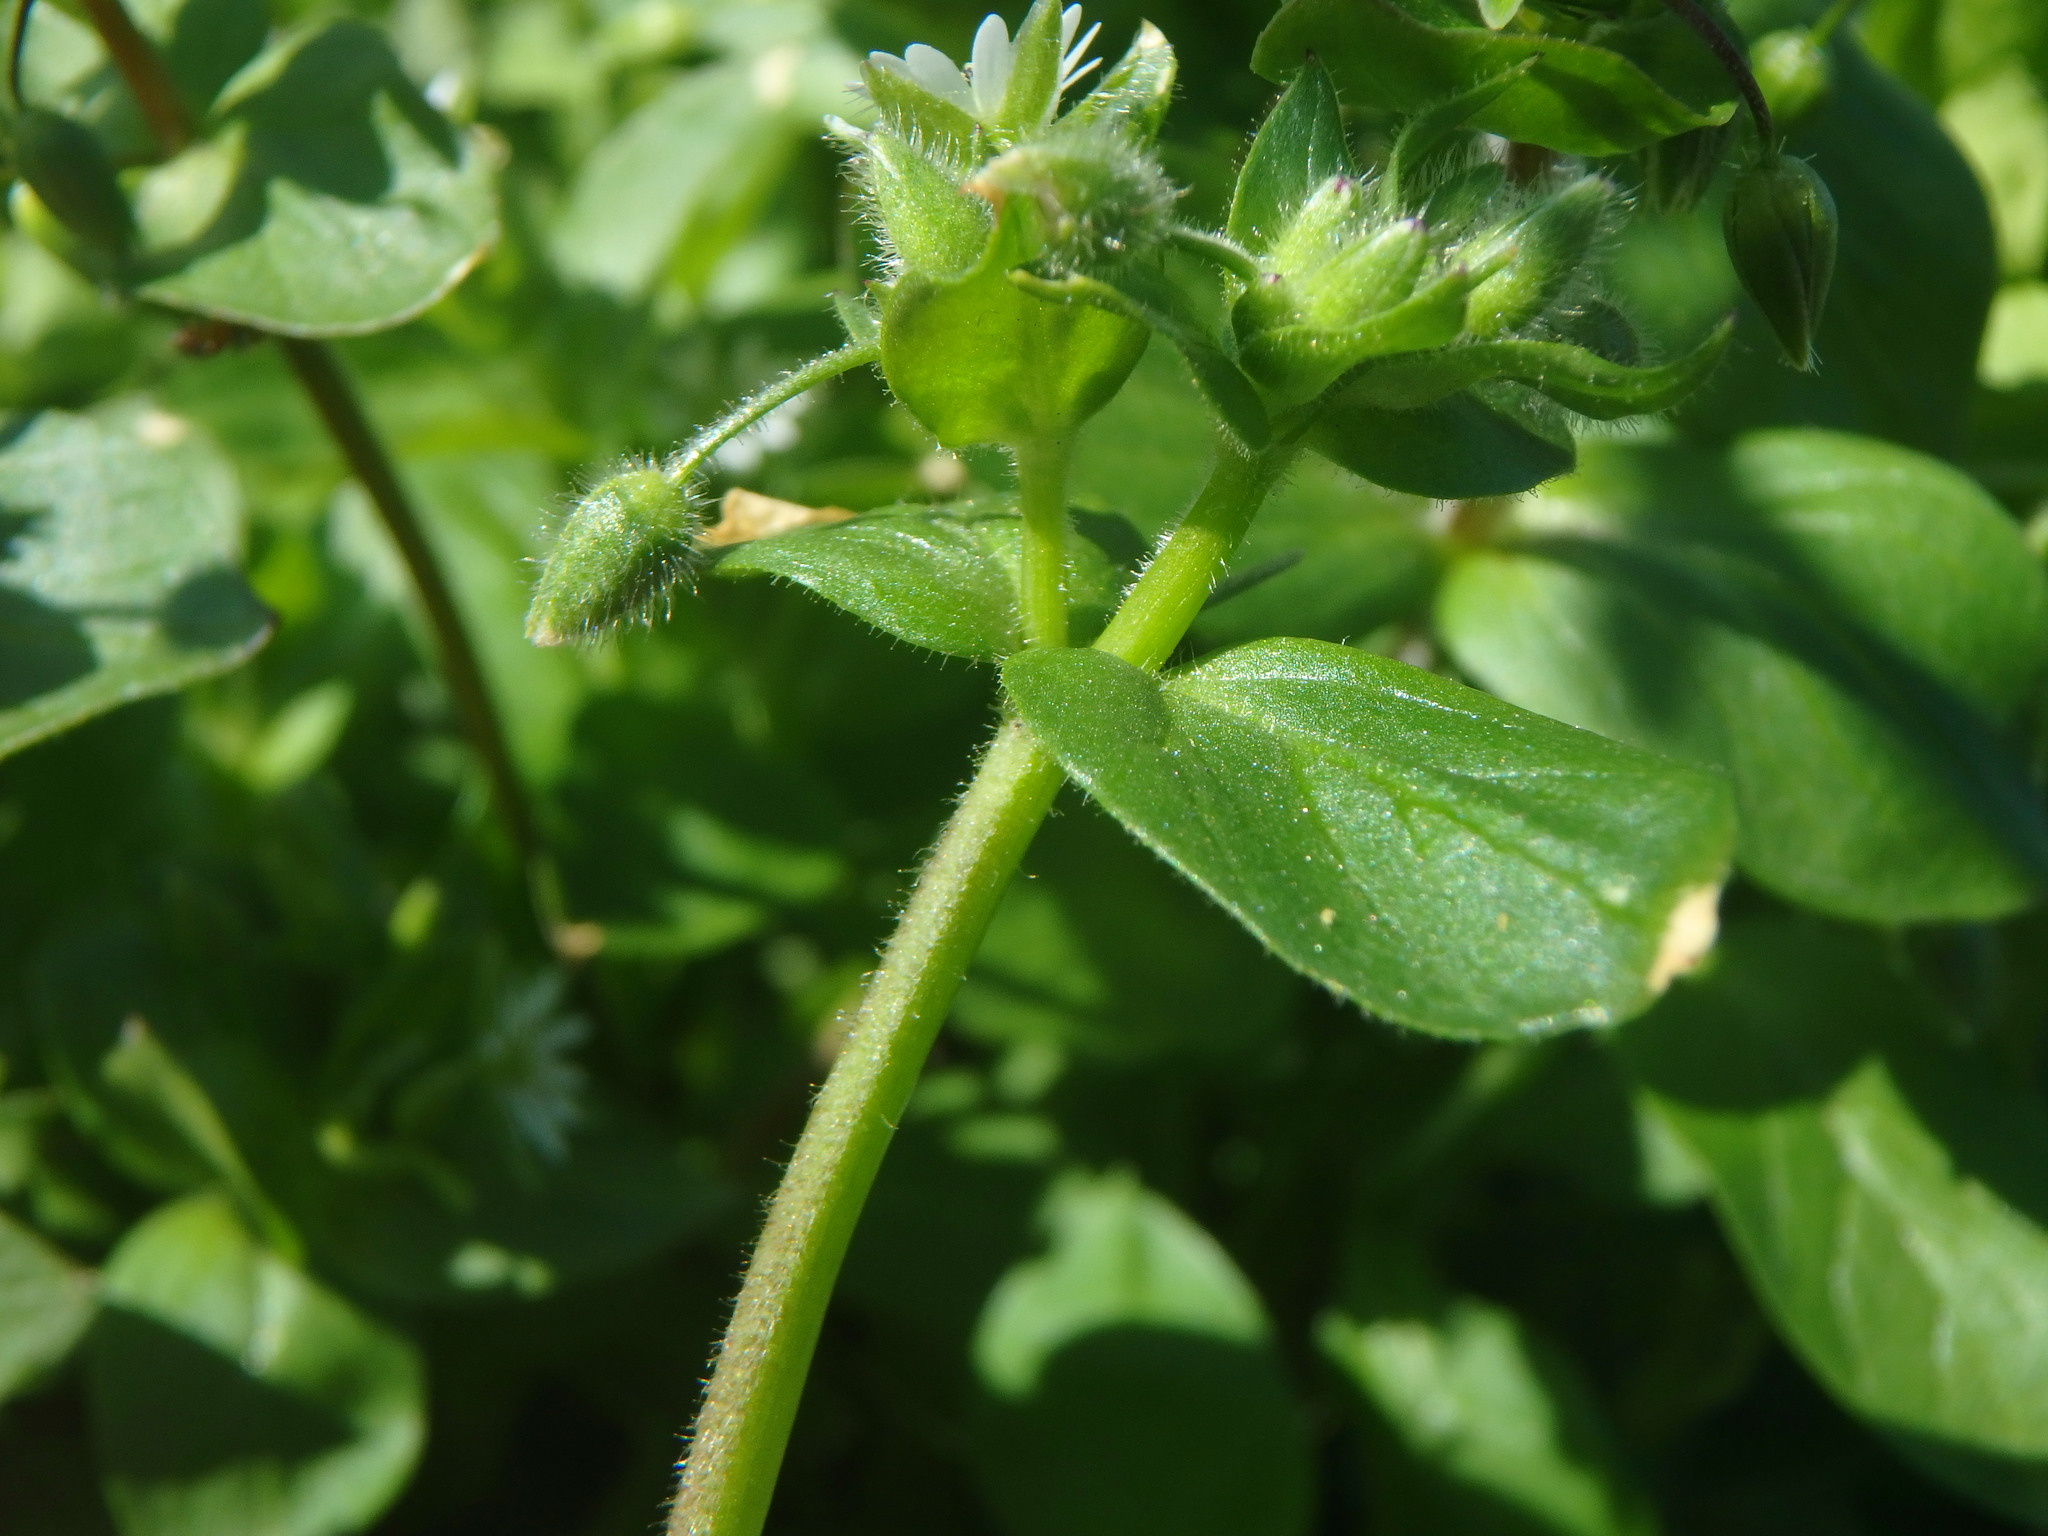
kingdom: Plantae
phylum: Tracheophyta
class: Magnoliopsida
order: Caryophyllales
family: Caryophyllaceae
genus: Stellaria
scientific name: Stellaria media
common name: Common chickweed
